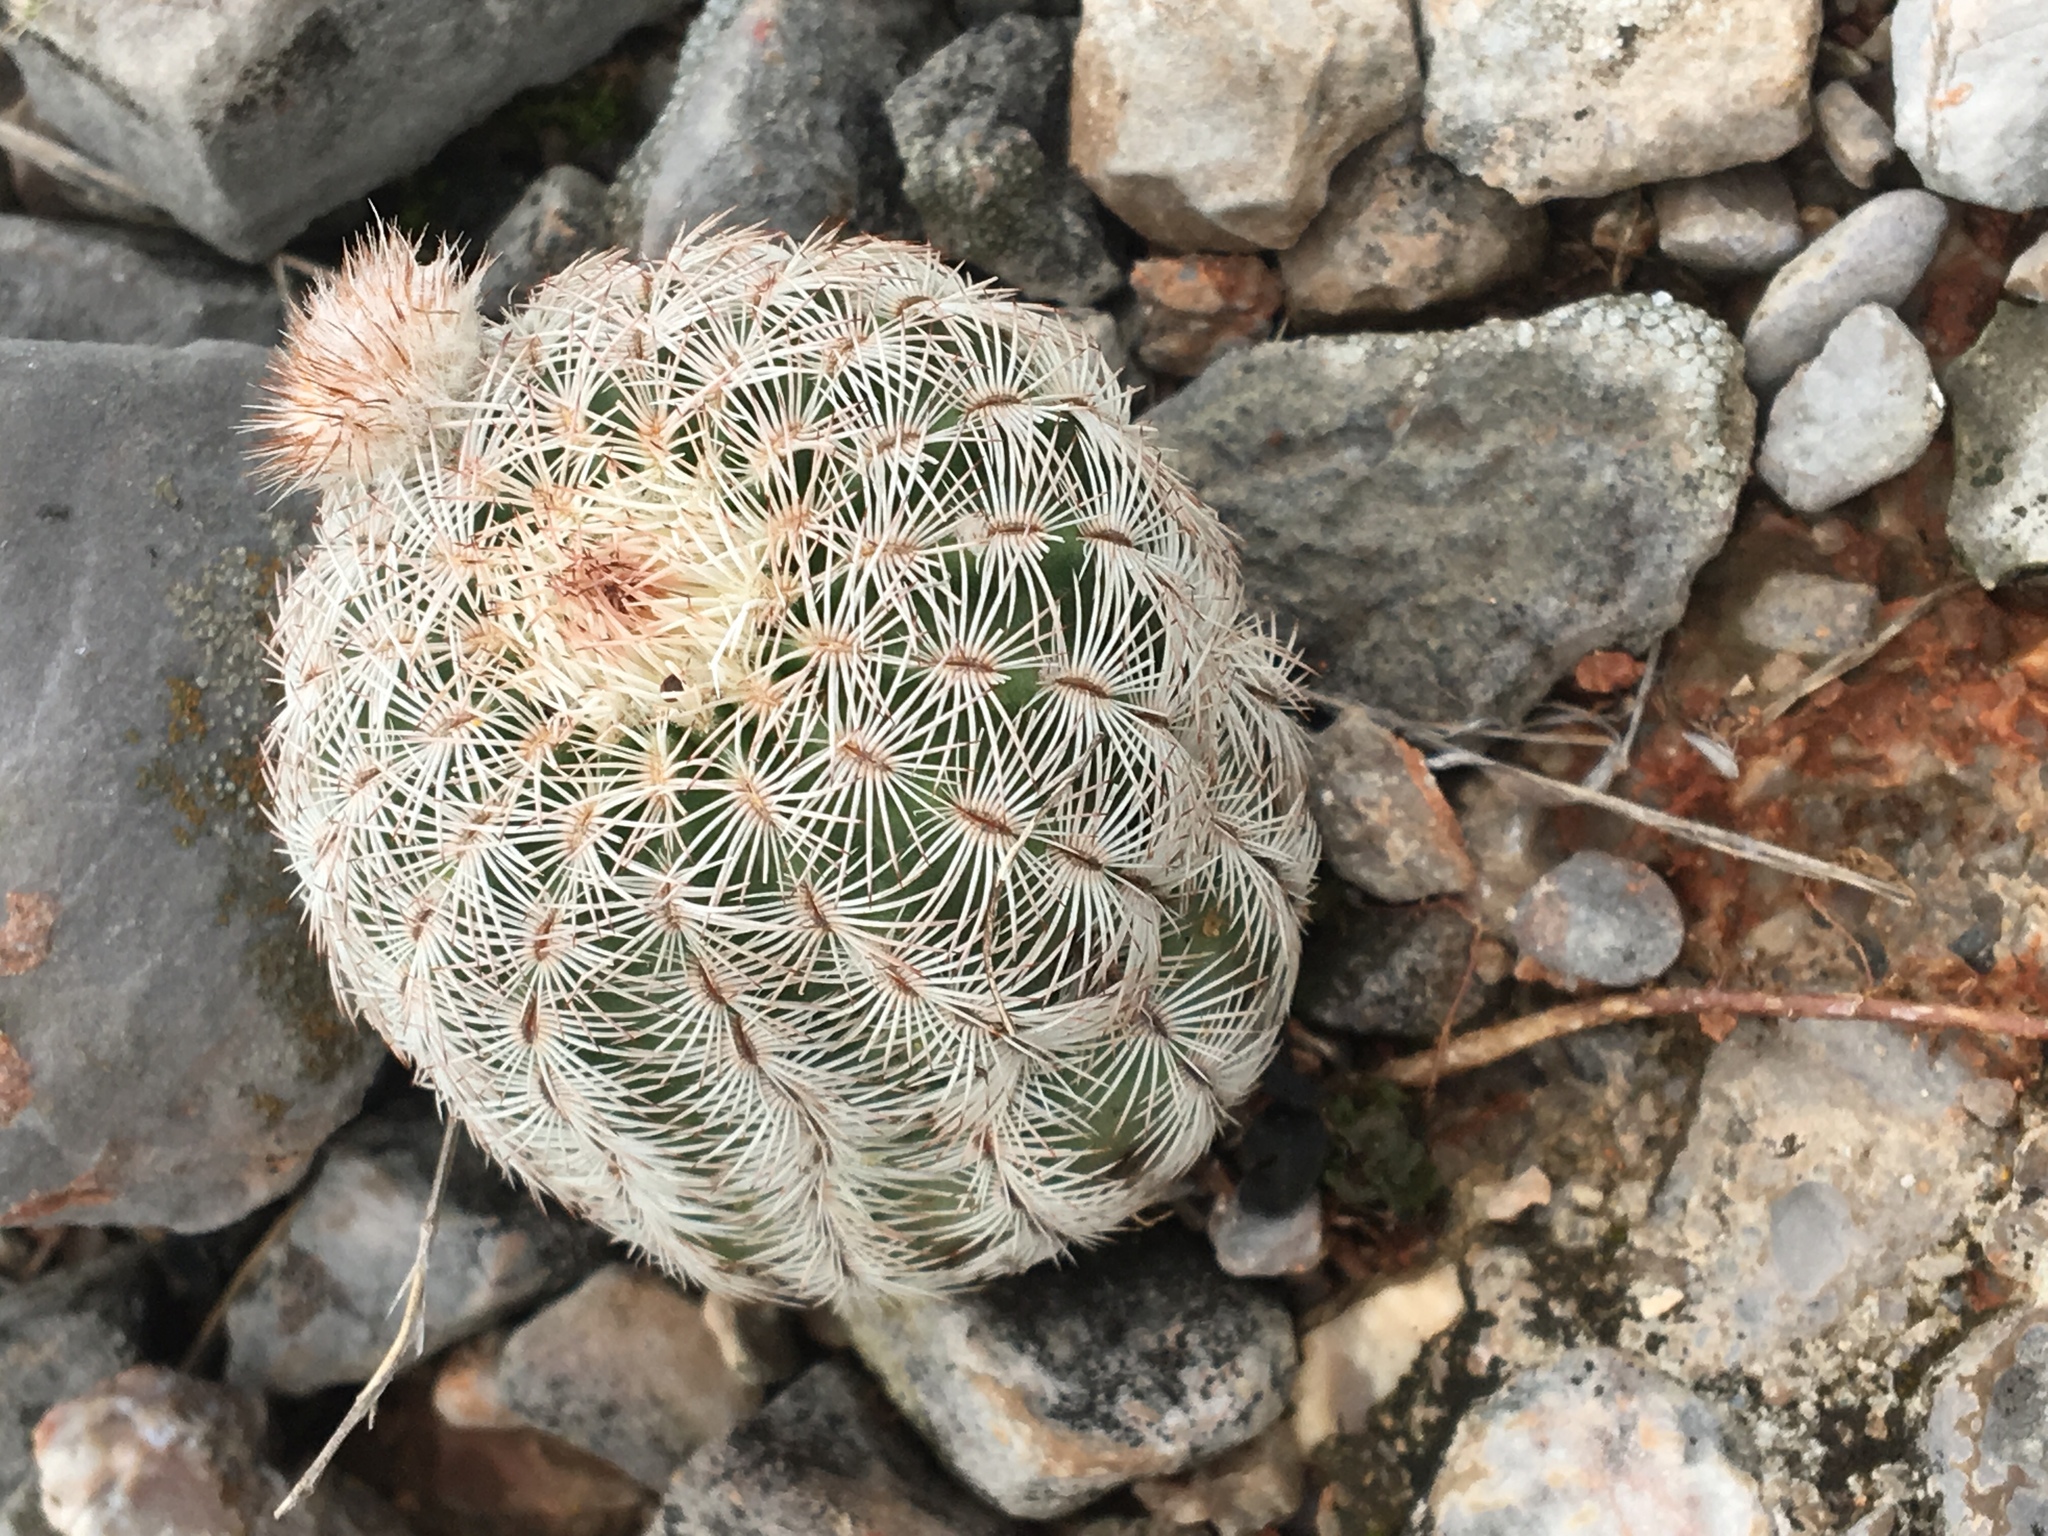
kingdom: Plantae
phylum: Tracheophyta
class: Magnoliopsida
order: Caryophyllales
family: Cactaceae
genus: Echinocereus
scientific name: Echinocereus reichenbachii
